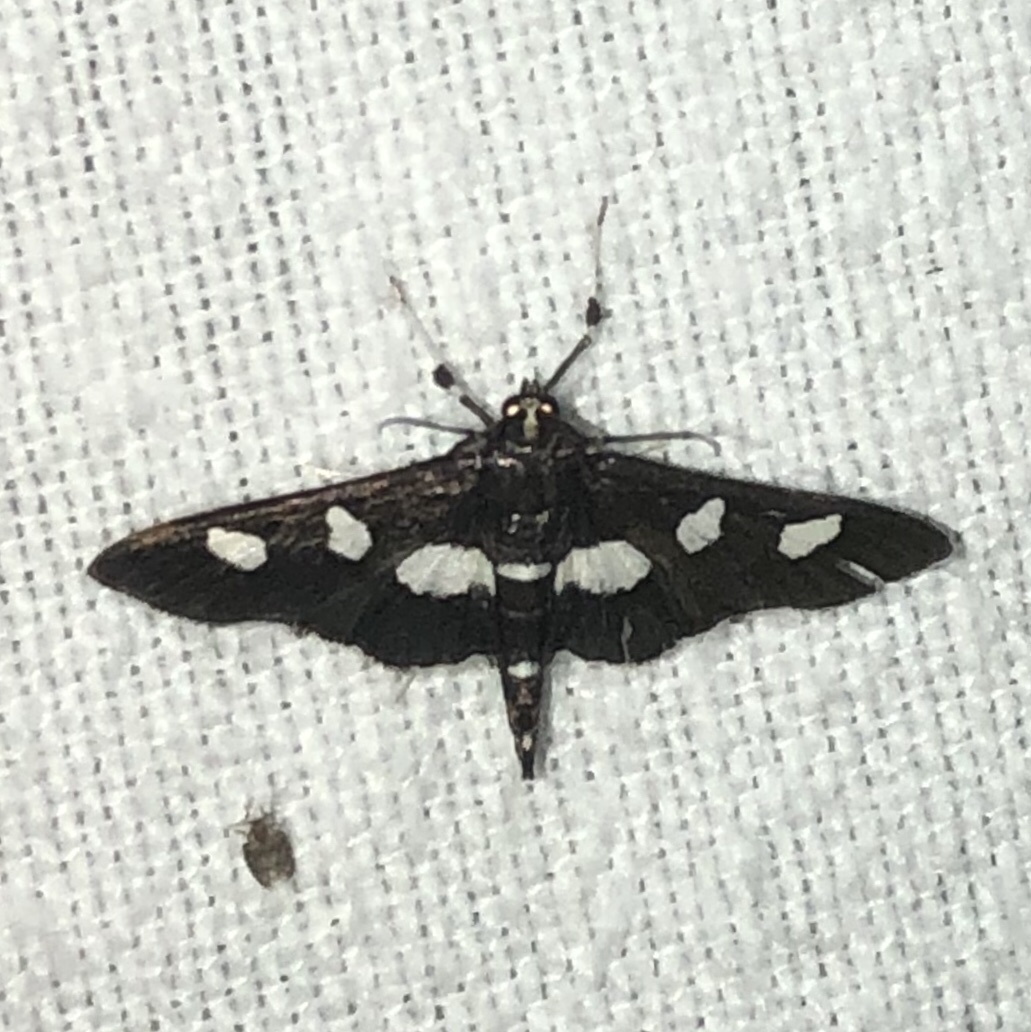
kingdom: Animalia
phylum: Arthropoda
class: Insecta
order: Lepidoptera
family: Crambidae
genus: Desmia
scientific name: Desmia funeralis
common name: Grape leaf folder moth
